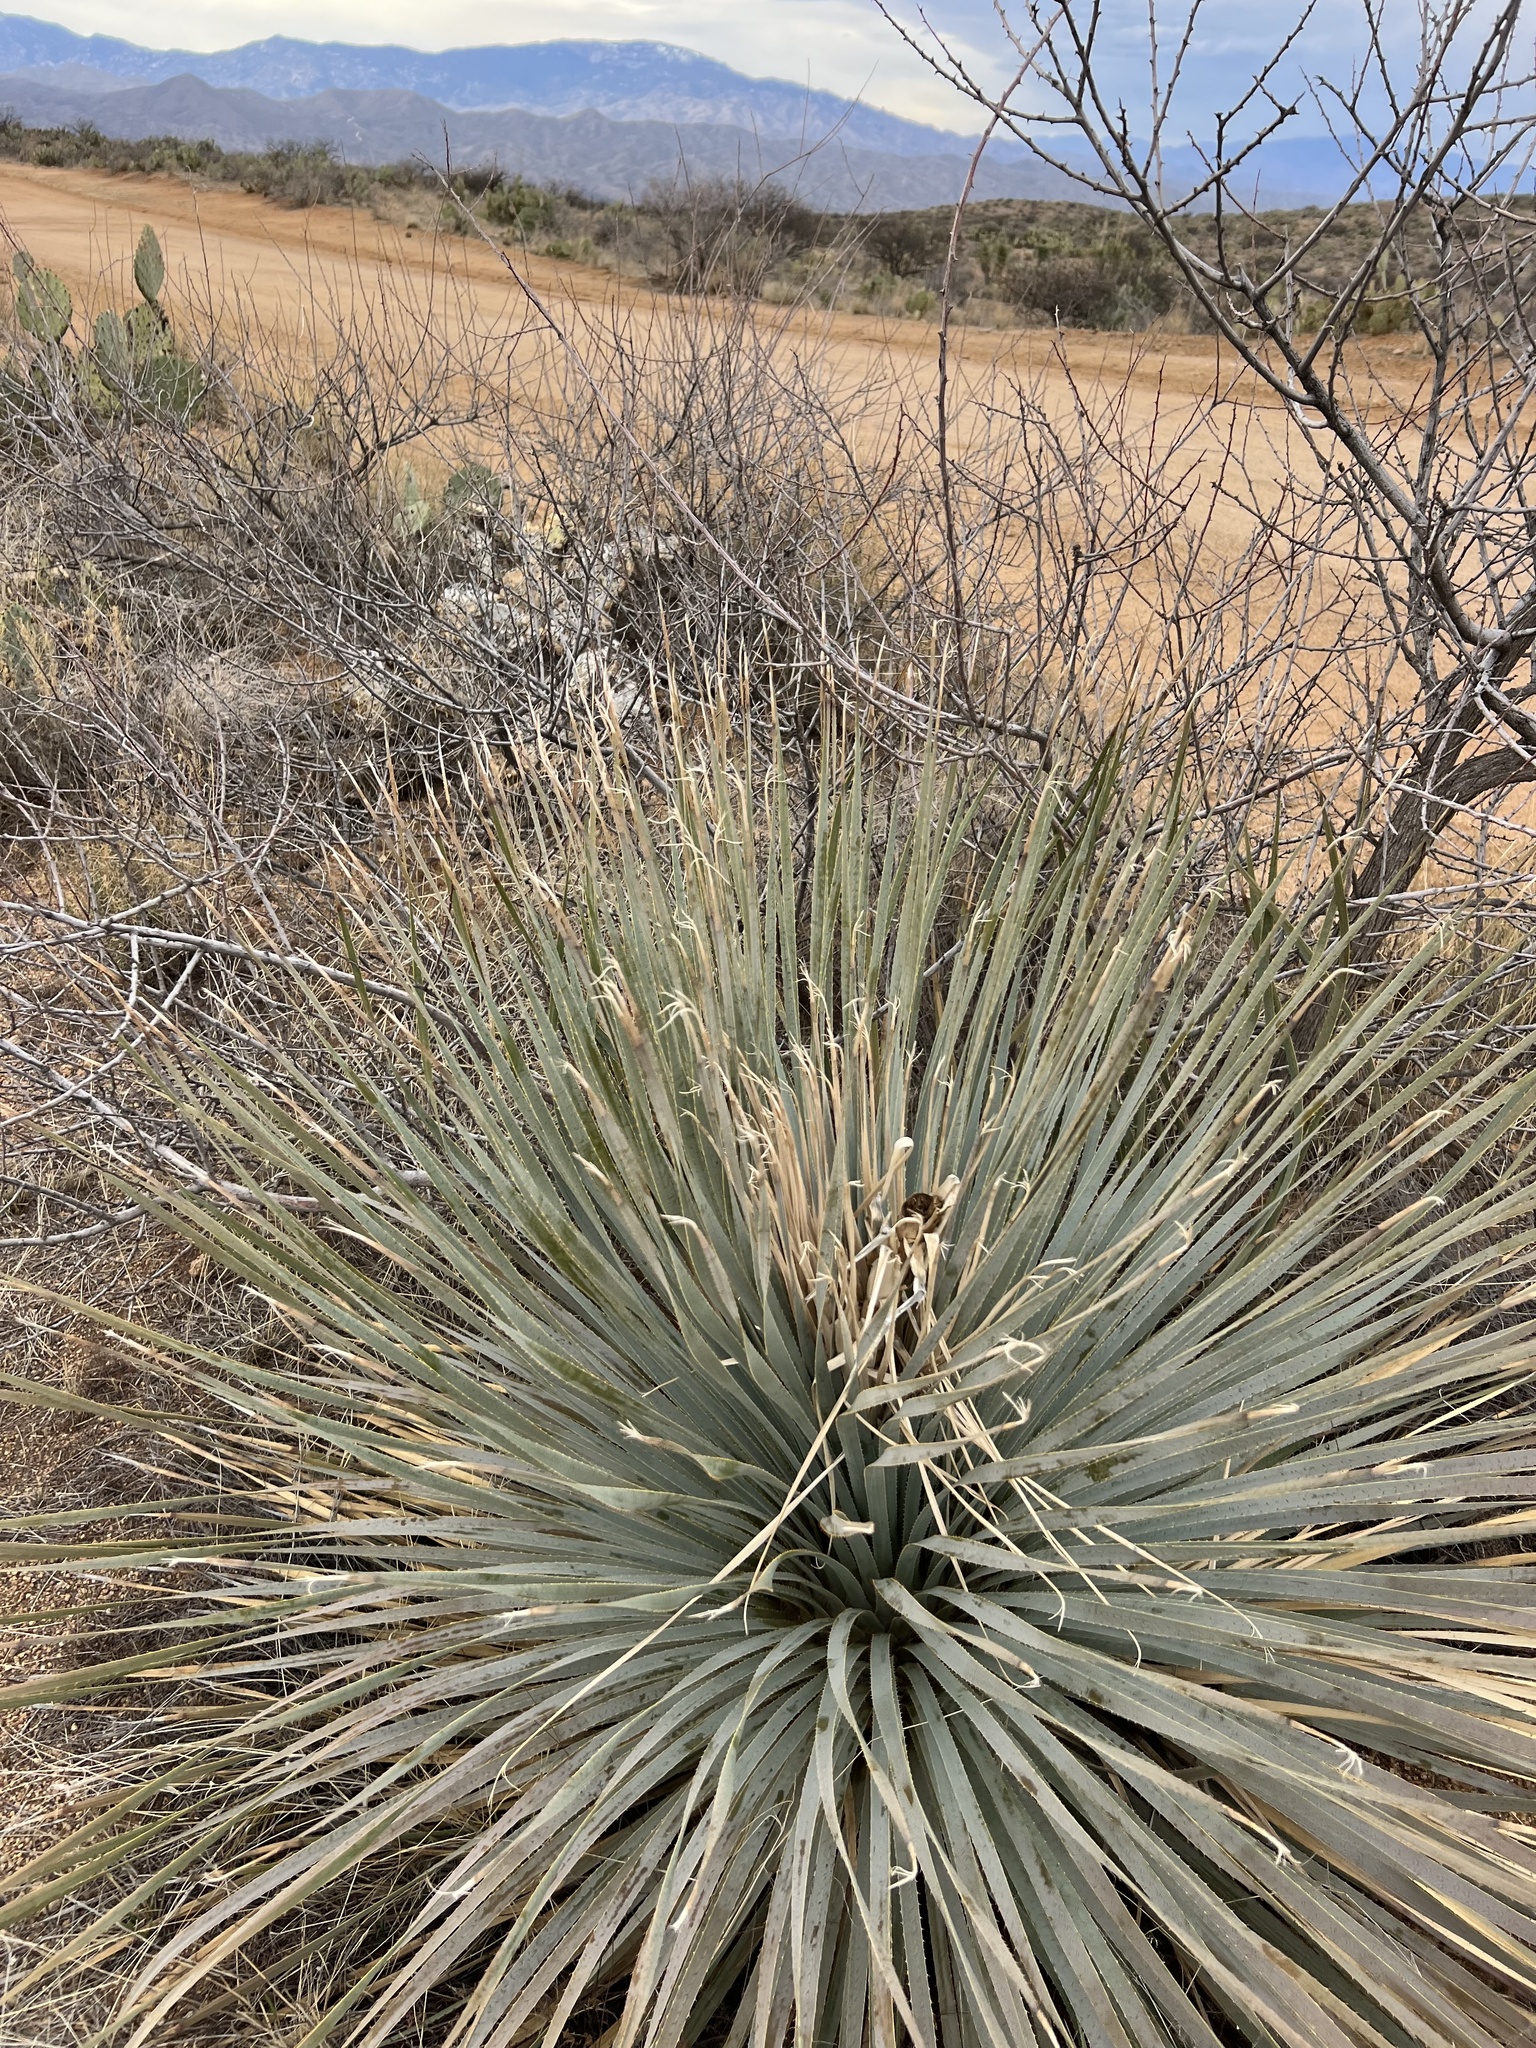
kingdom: Plantae
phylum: Tracheophyta
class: Liliopsida
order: Asparagales
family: Asparagaceae
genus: Dasylirion
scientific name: Dasylirion wheeleri
